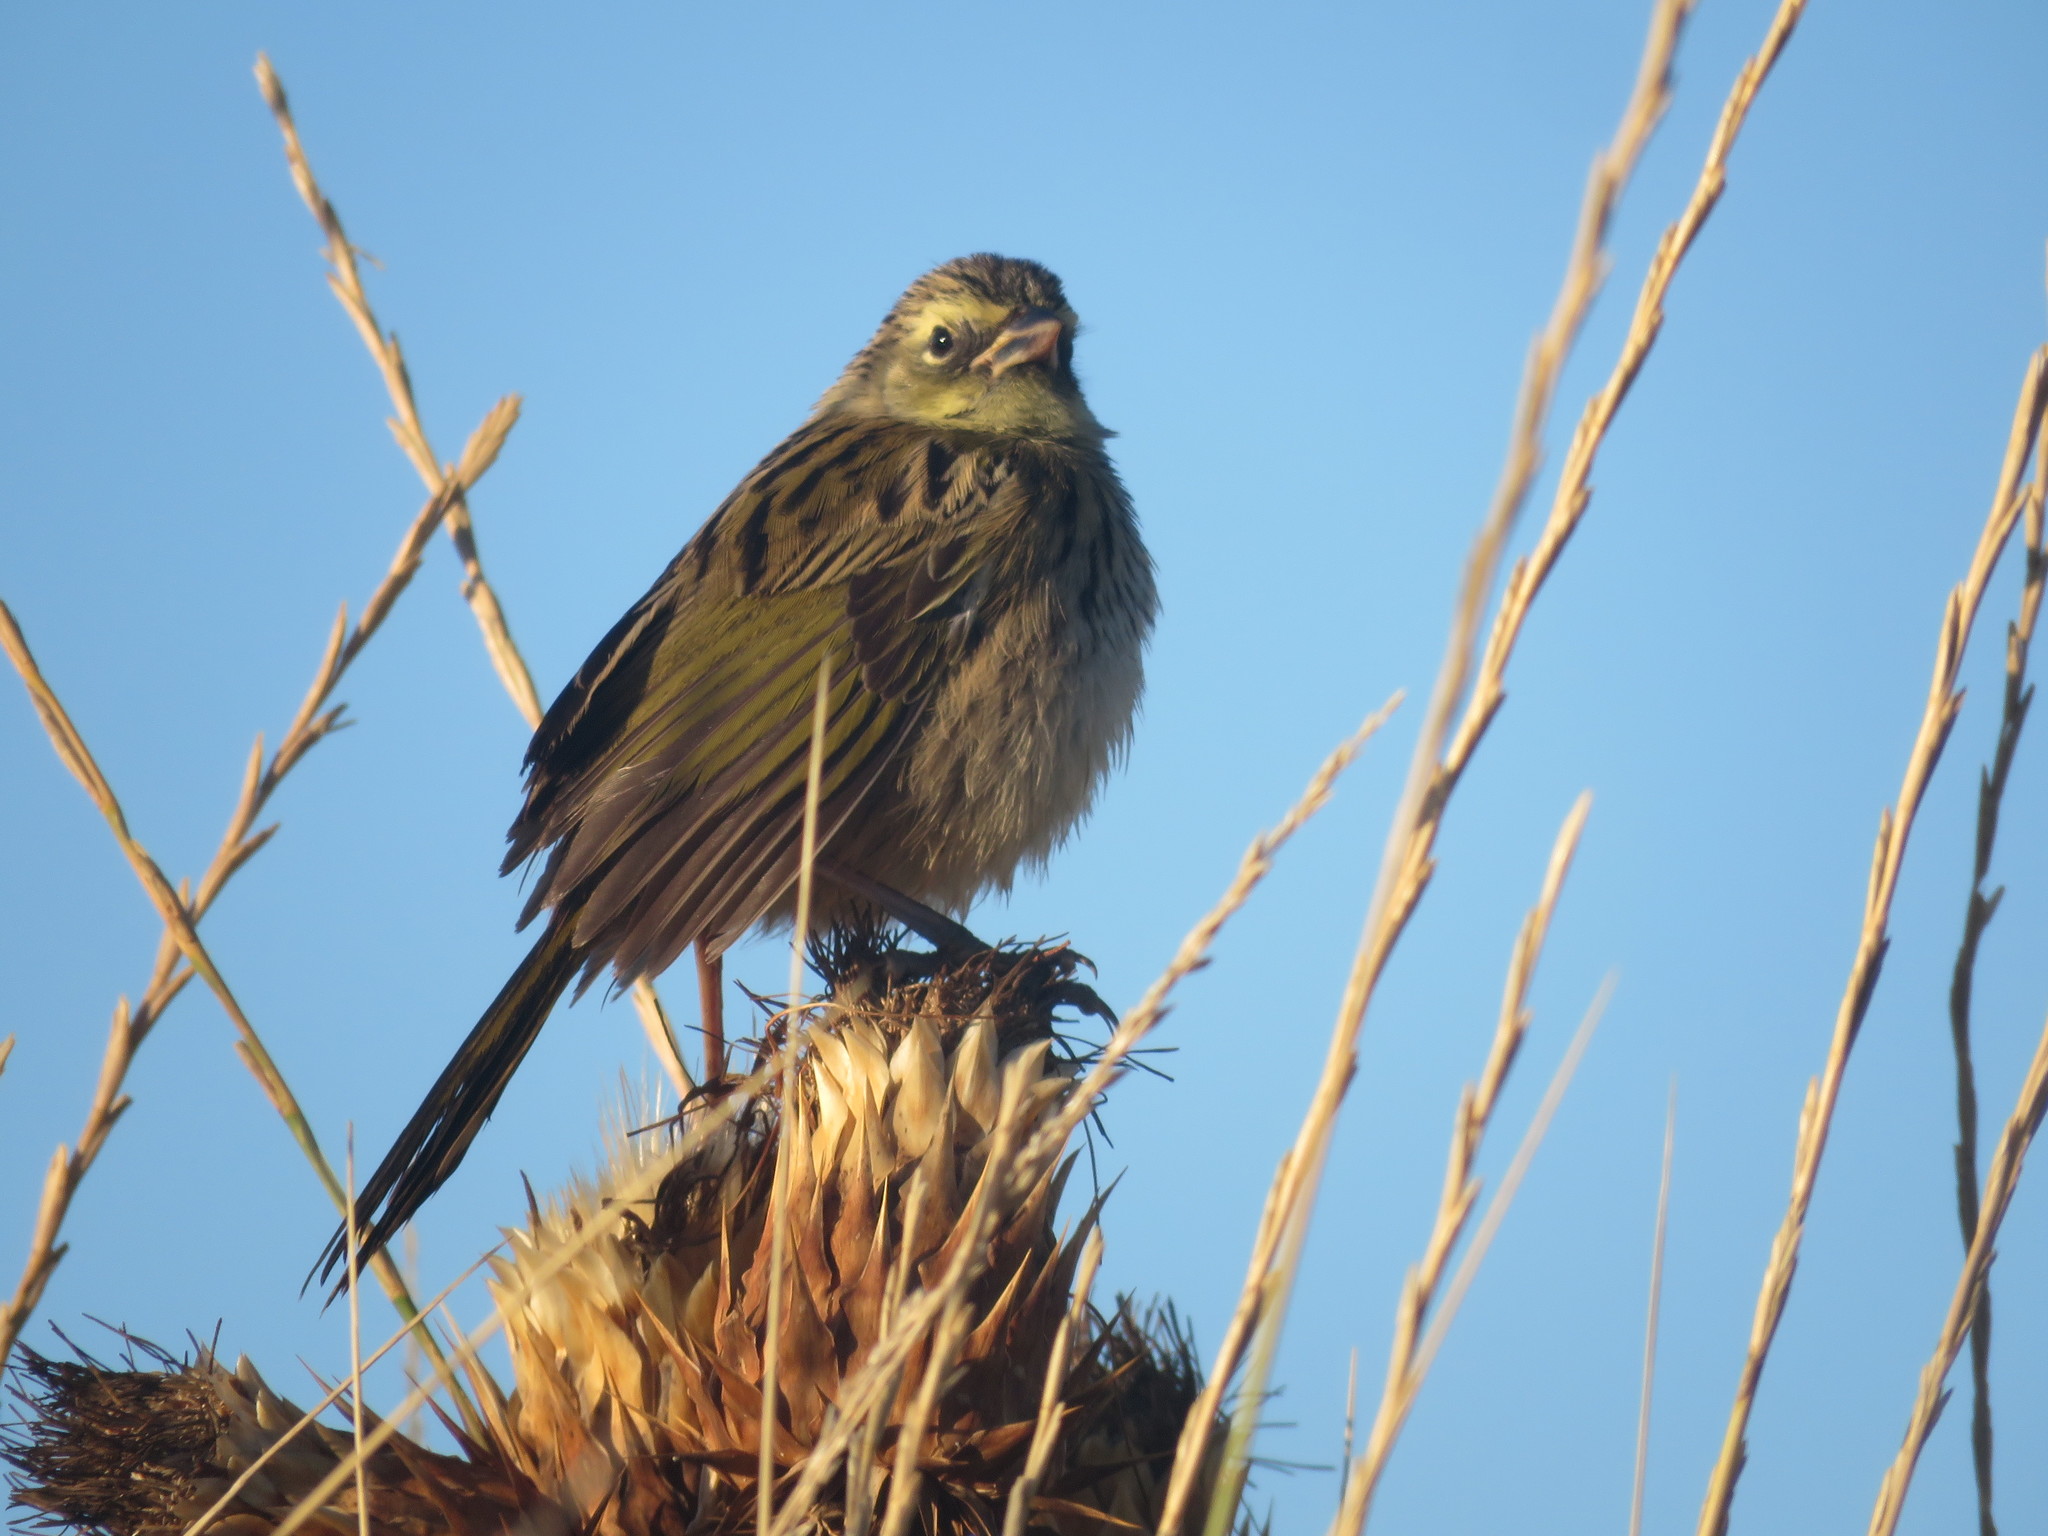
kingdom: Animalia
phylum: Chordata
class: Aves
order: Passeriformes
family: Thraupidae
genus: Embernagra
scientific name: Embernagra platensis
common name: Pampa finch
